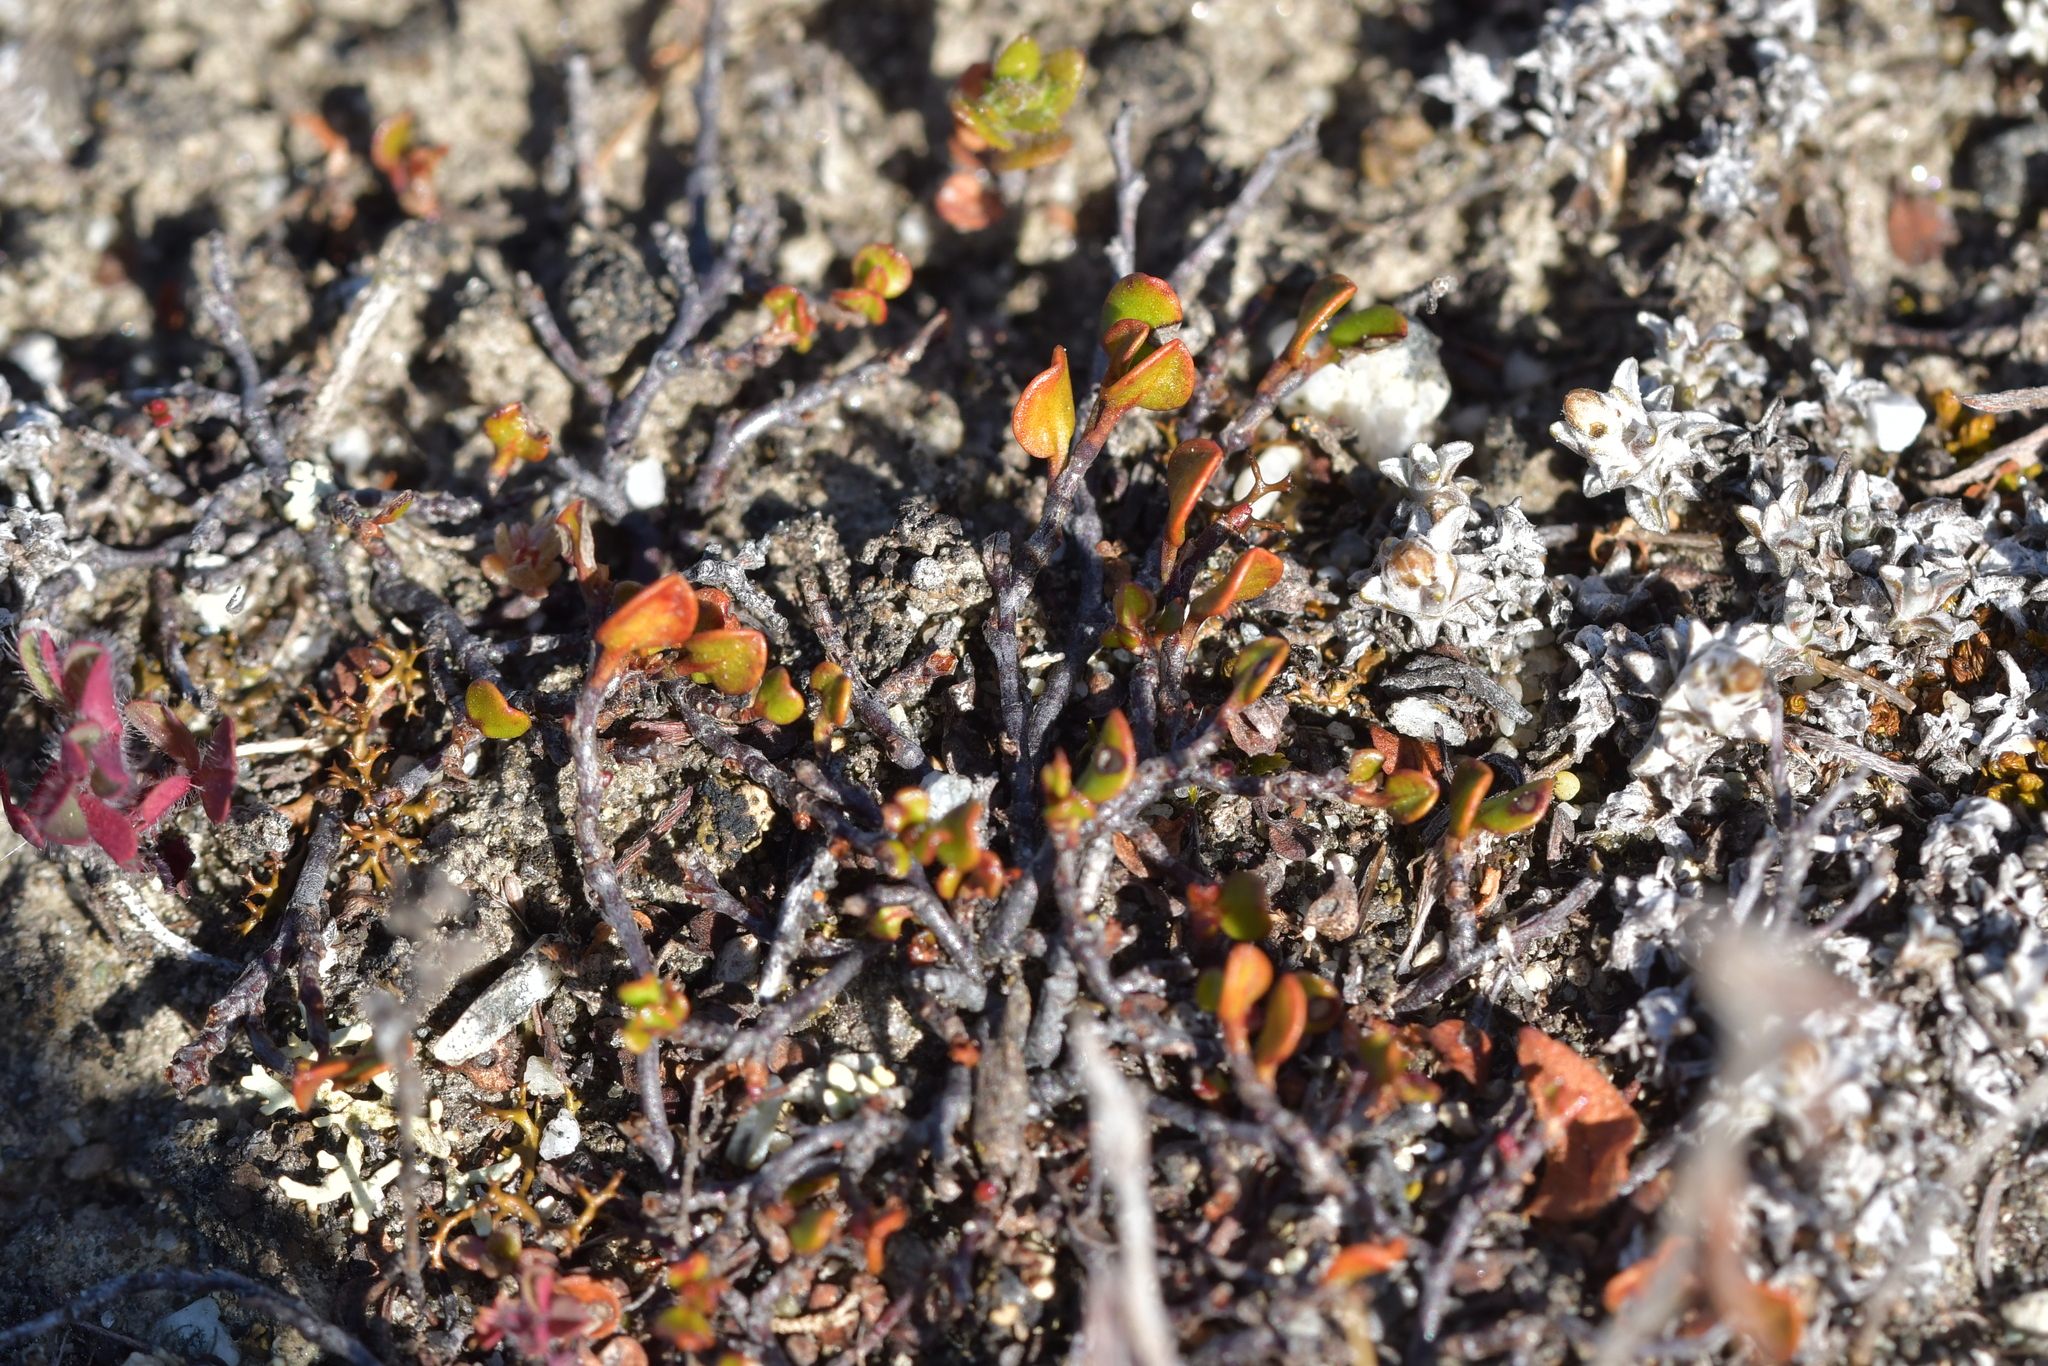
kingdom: Plantae
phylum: Tracheophyta
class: Magnoliopsida
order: Caryophyllales
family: Polygonaceae
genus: Muehlenbeckia
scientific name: Muehlenbeckia axillaris
